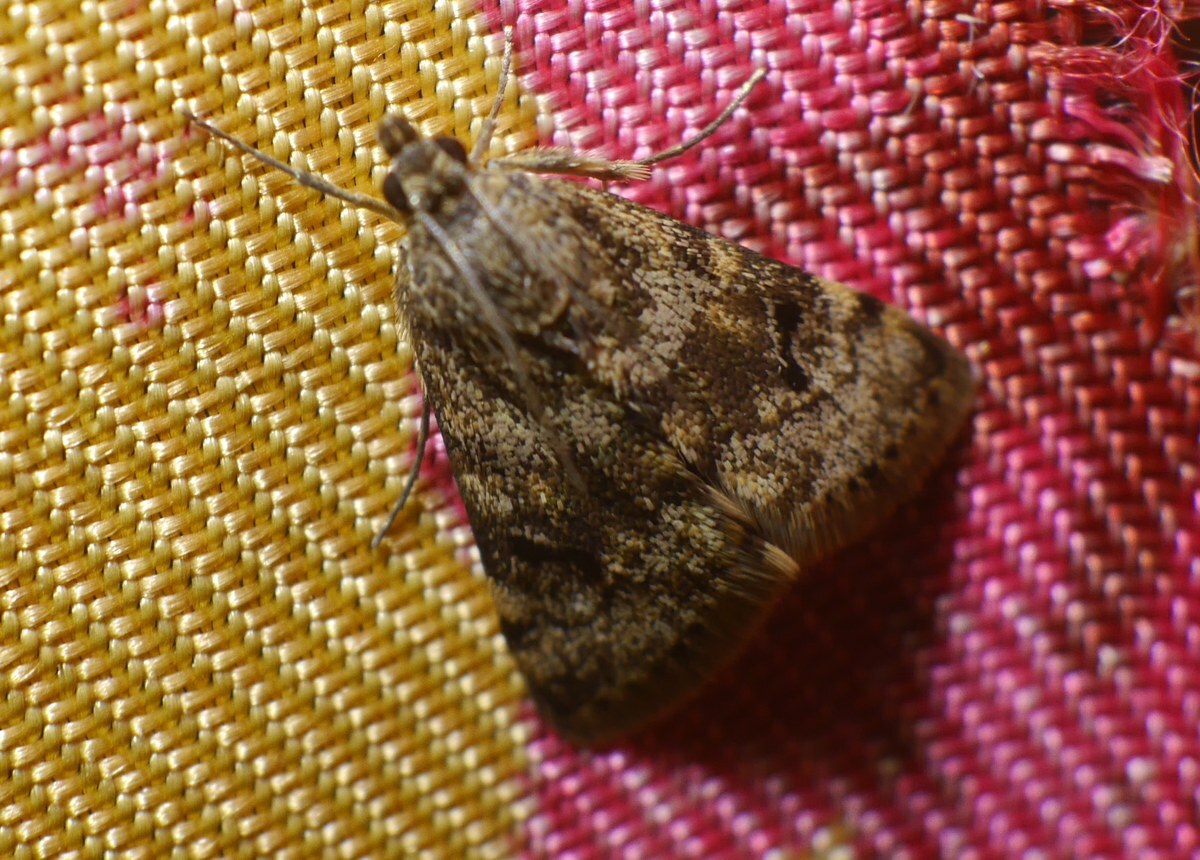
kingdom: Animalia
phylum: Arthropoda
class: Insecta
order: Lepidoptera
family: Crambidae
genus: Noctuelia
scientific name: Noctuelia Aporodes floralis
